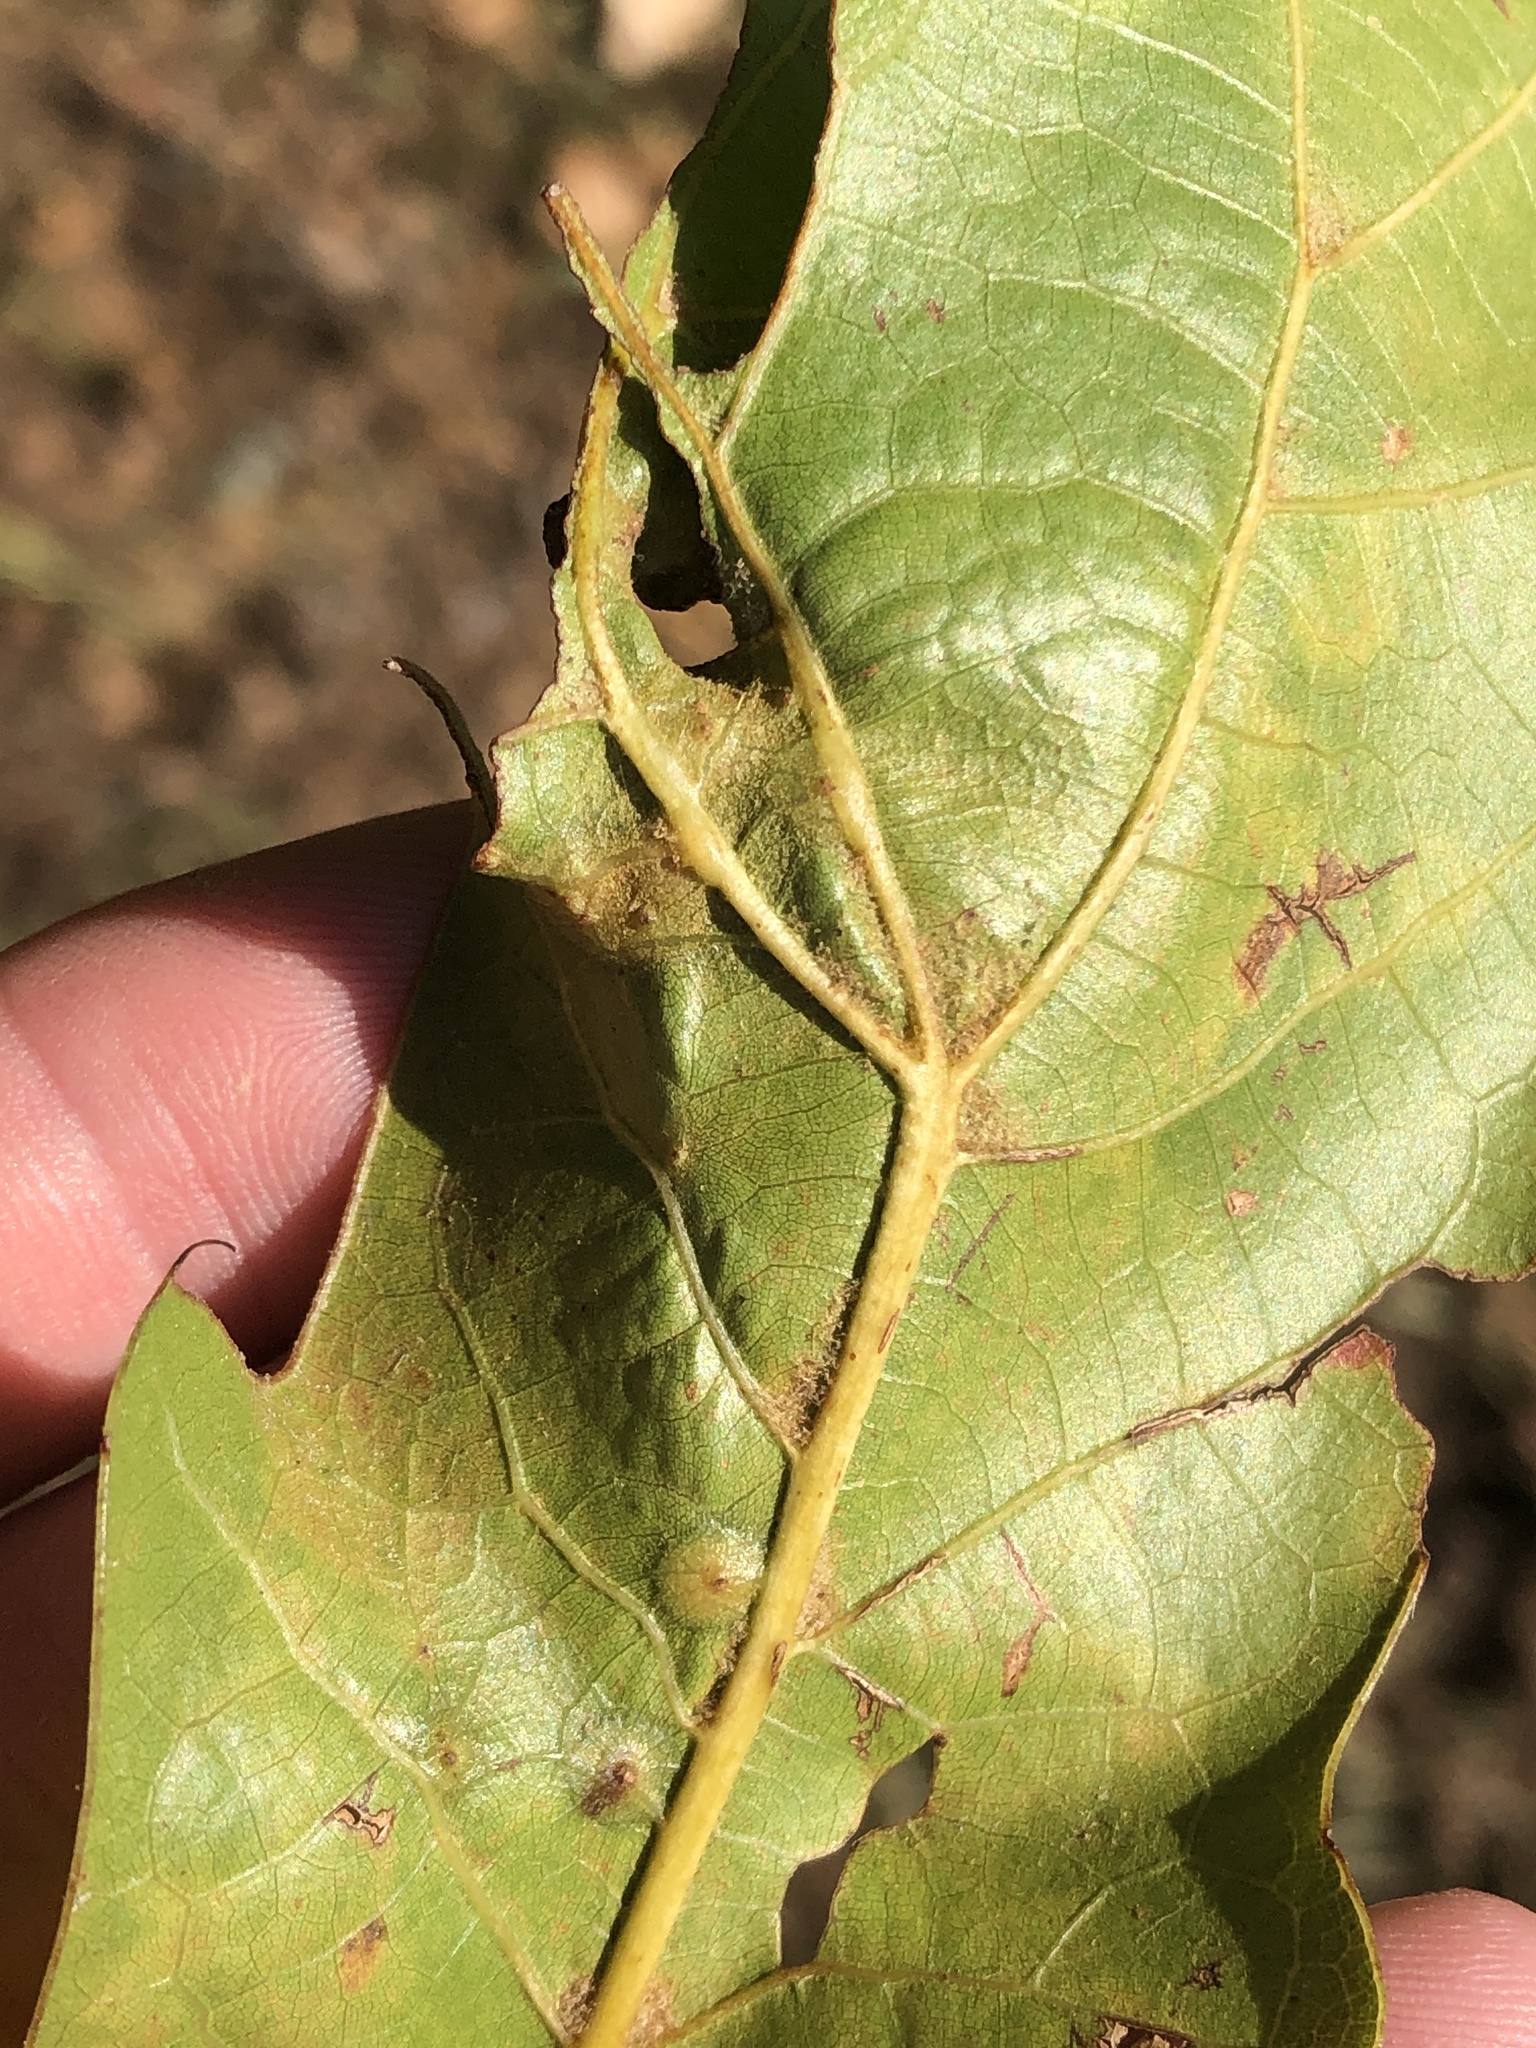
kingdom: Animalia
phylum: Arthropoda
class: Insecta
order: Diptera
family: Cecidomyiidae
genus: Polystepha
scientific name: Polystepha pilulae
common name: Oak leaf gall midge
